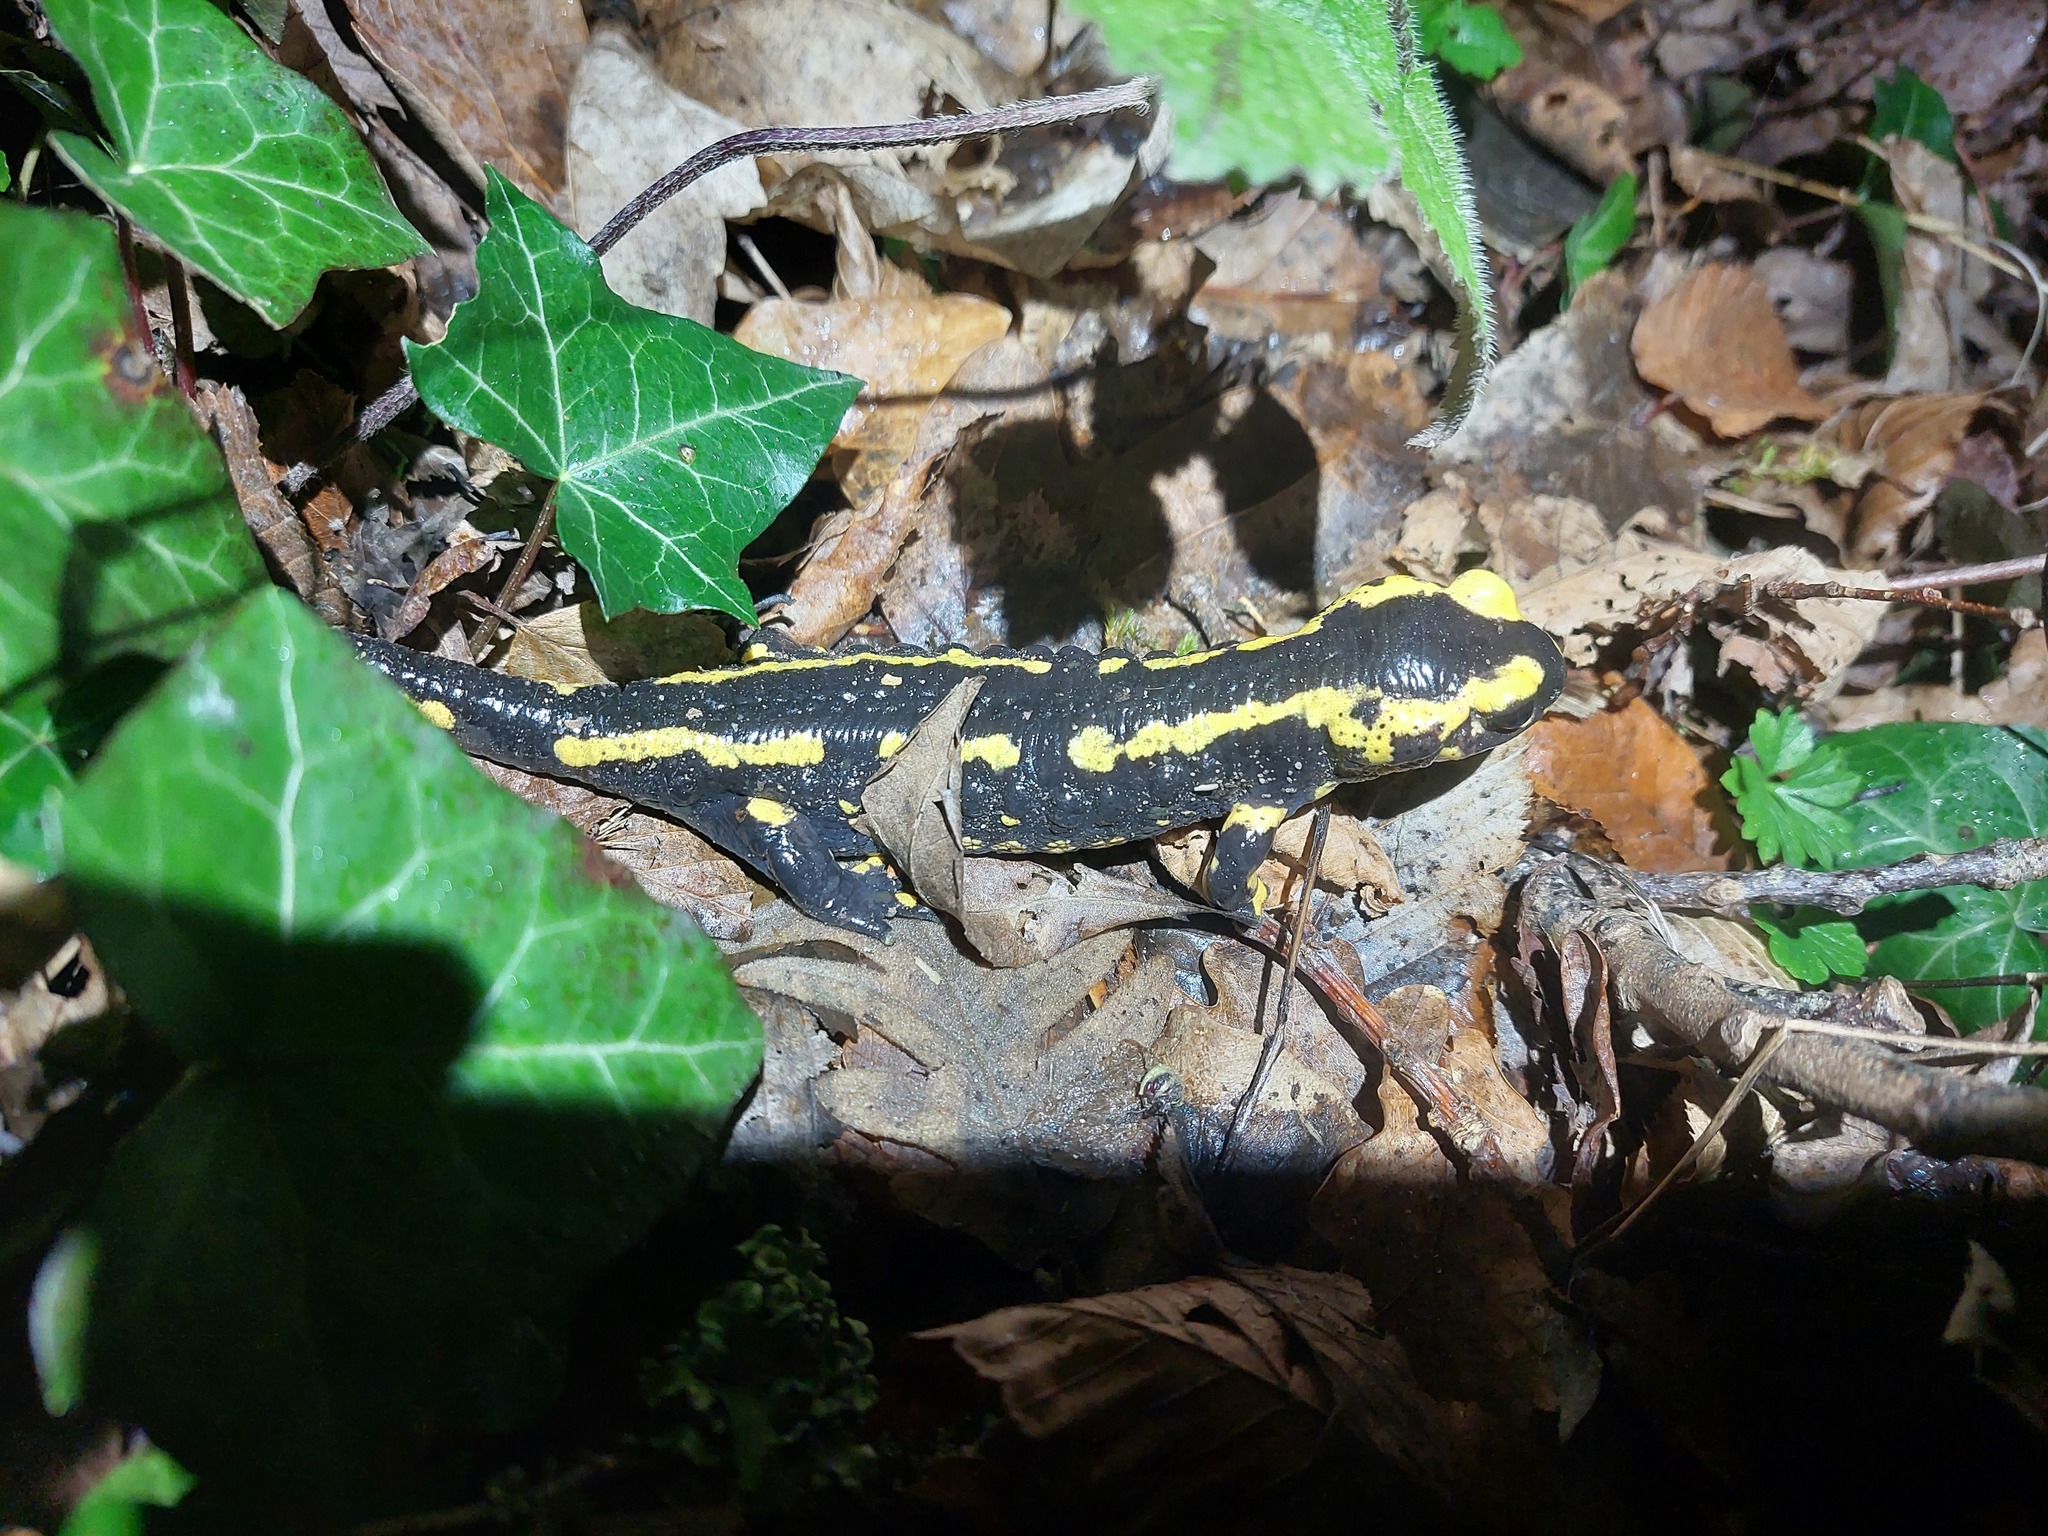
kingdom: Animalia
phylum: Chordata
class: Amphibia
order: Caudata
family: Salamandridae
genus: Salamandra
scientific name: Salamandra salamandra
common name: Fire salamander
